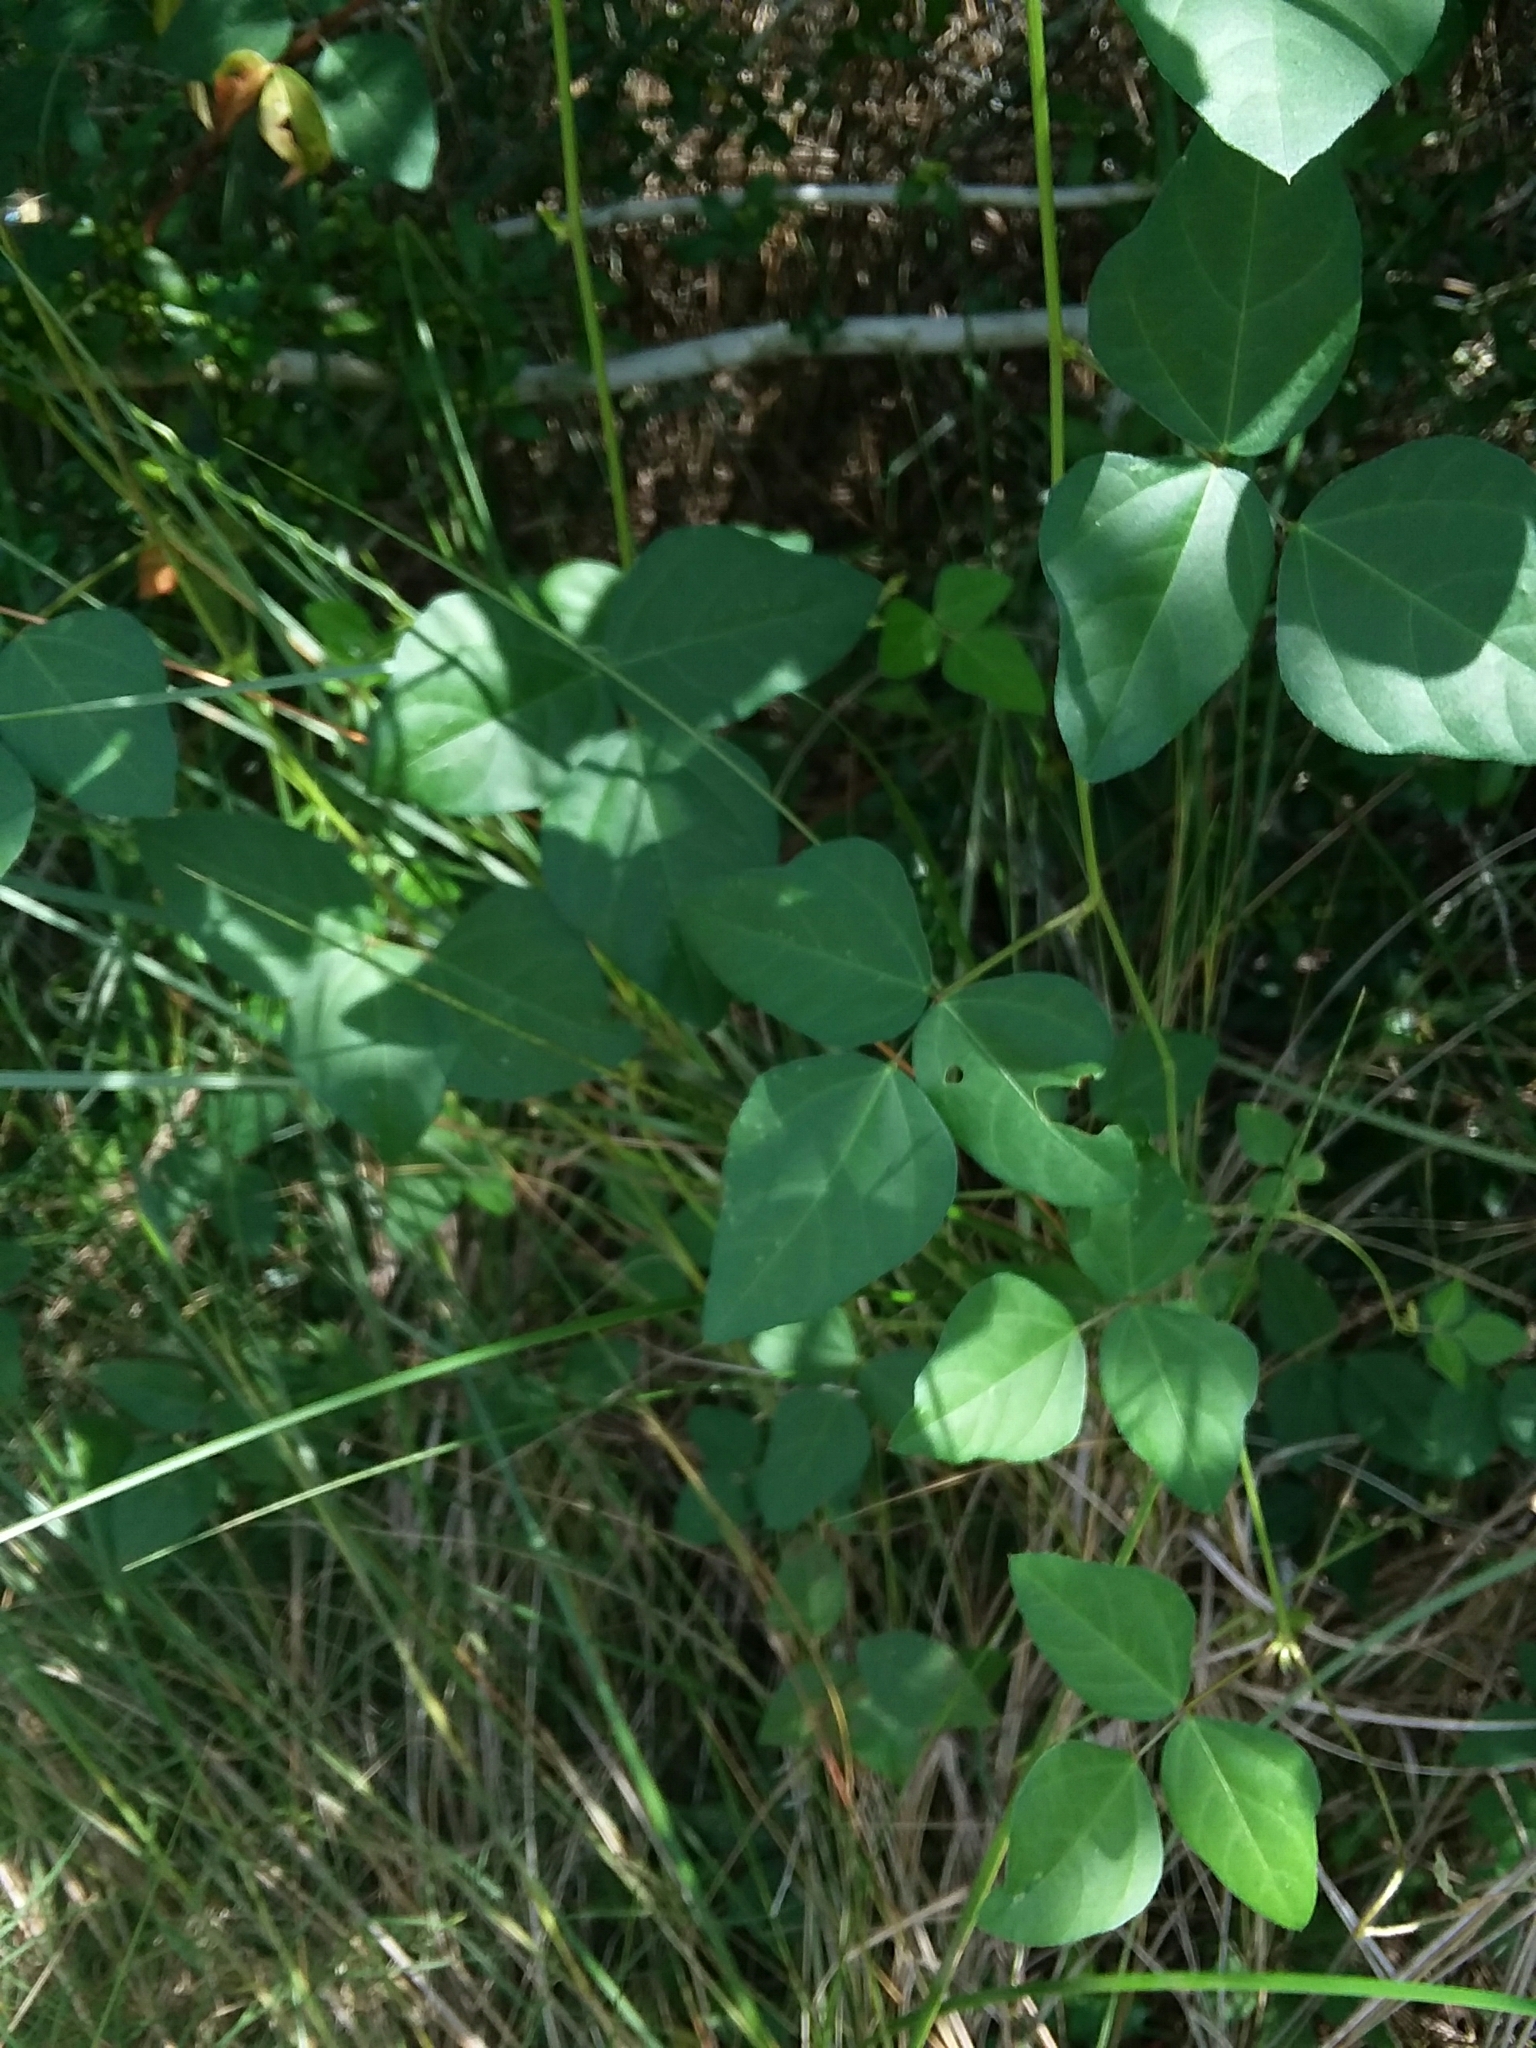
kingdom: Plantae
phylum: Tracheophyta
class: Magnoliopsida
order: Fabales
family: Fabaceae
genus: Strophostyles
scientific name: Strophostyles helvola
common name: Trailing wild bean
